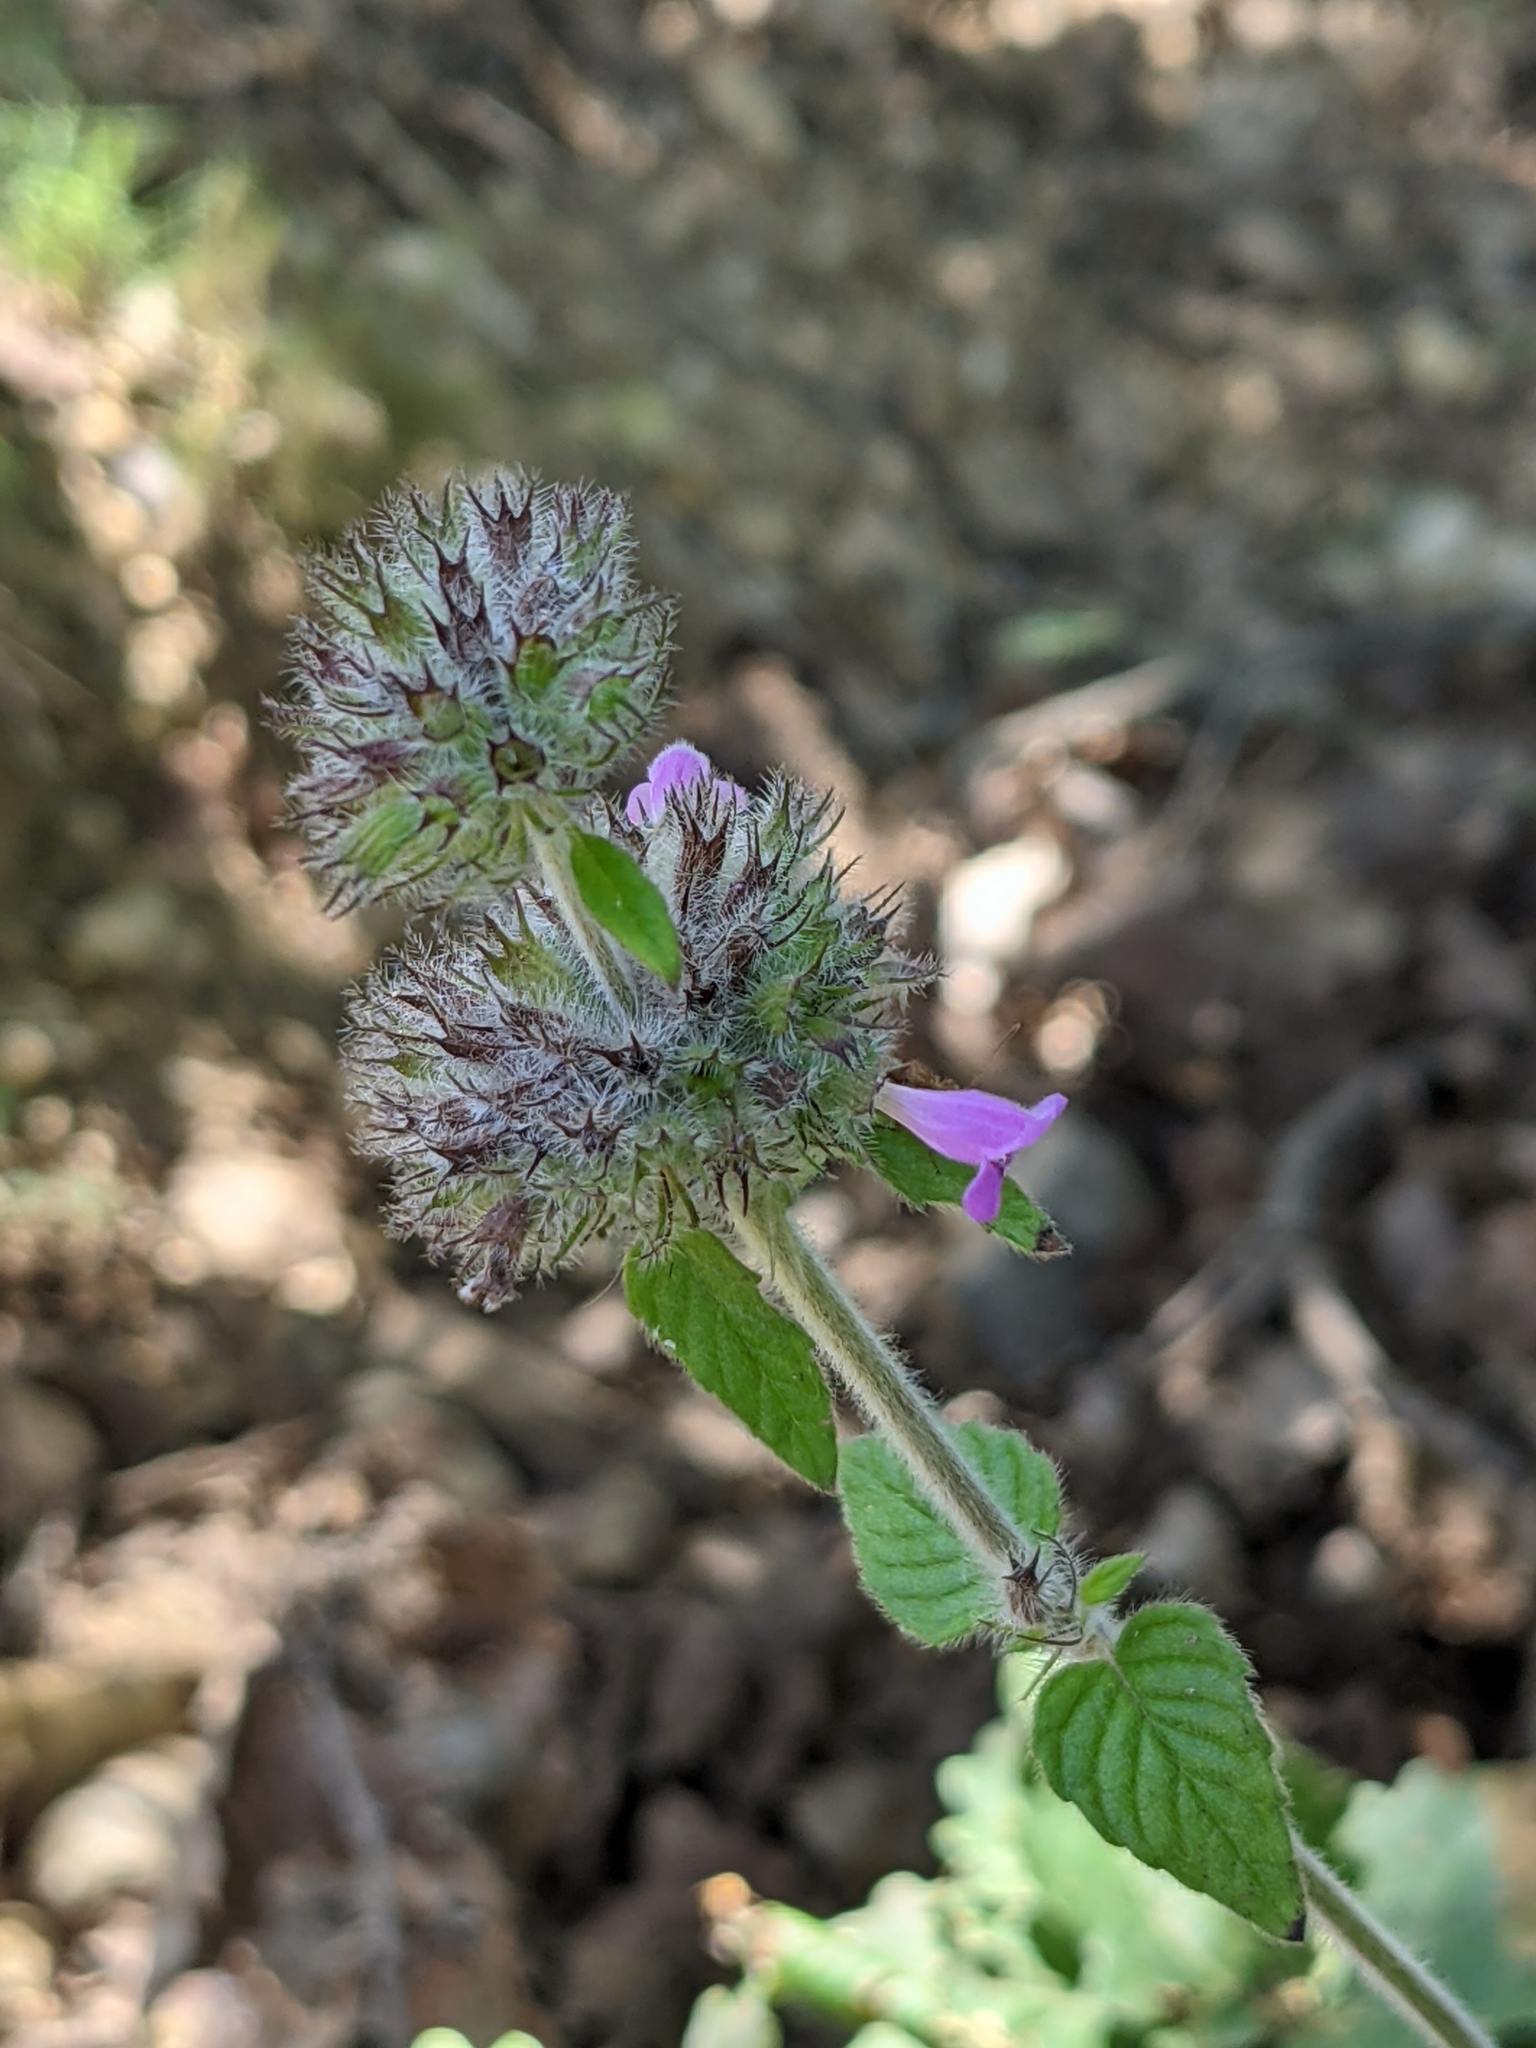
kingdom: Plantae
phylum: Tracheophyta
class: Magnoliopsida
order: Lamiales
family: Lamiaceae
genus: Clinopodium
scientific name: Clinopodium vulgare
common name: Wild basil
